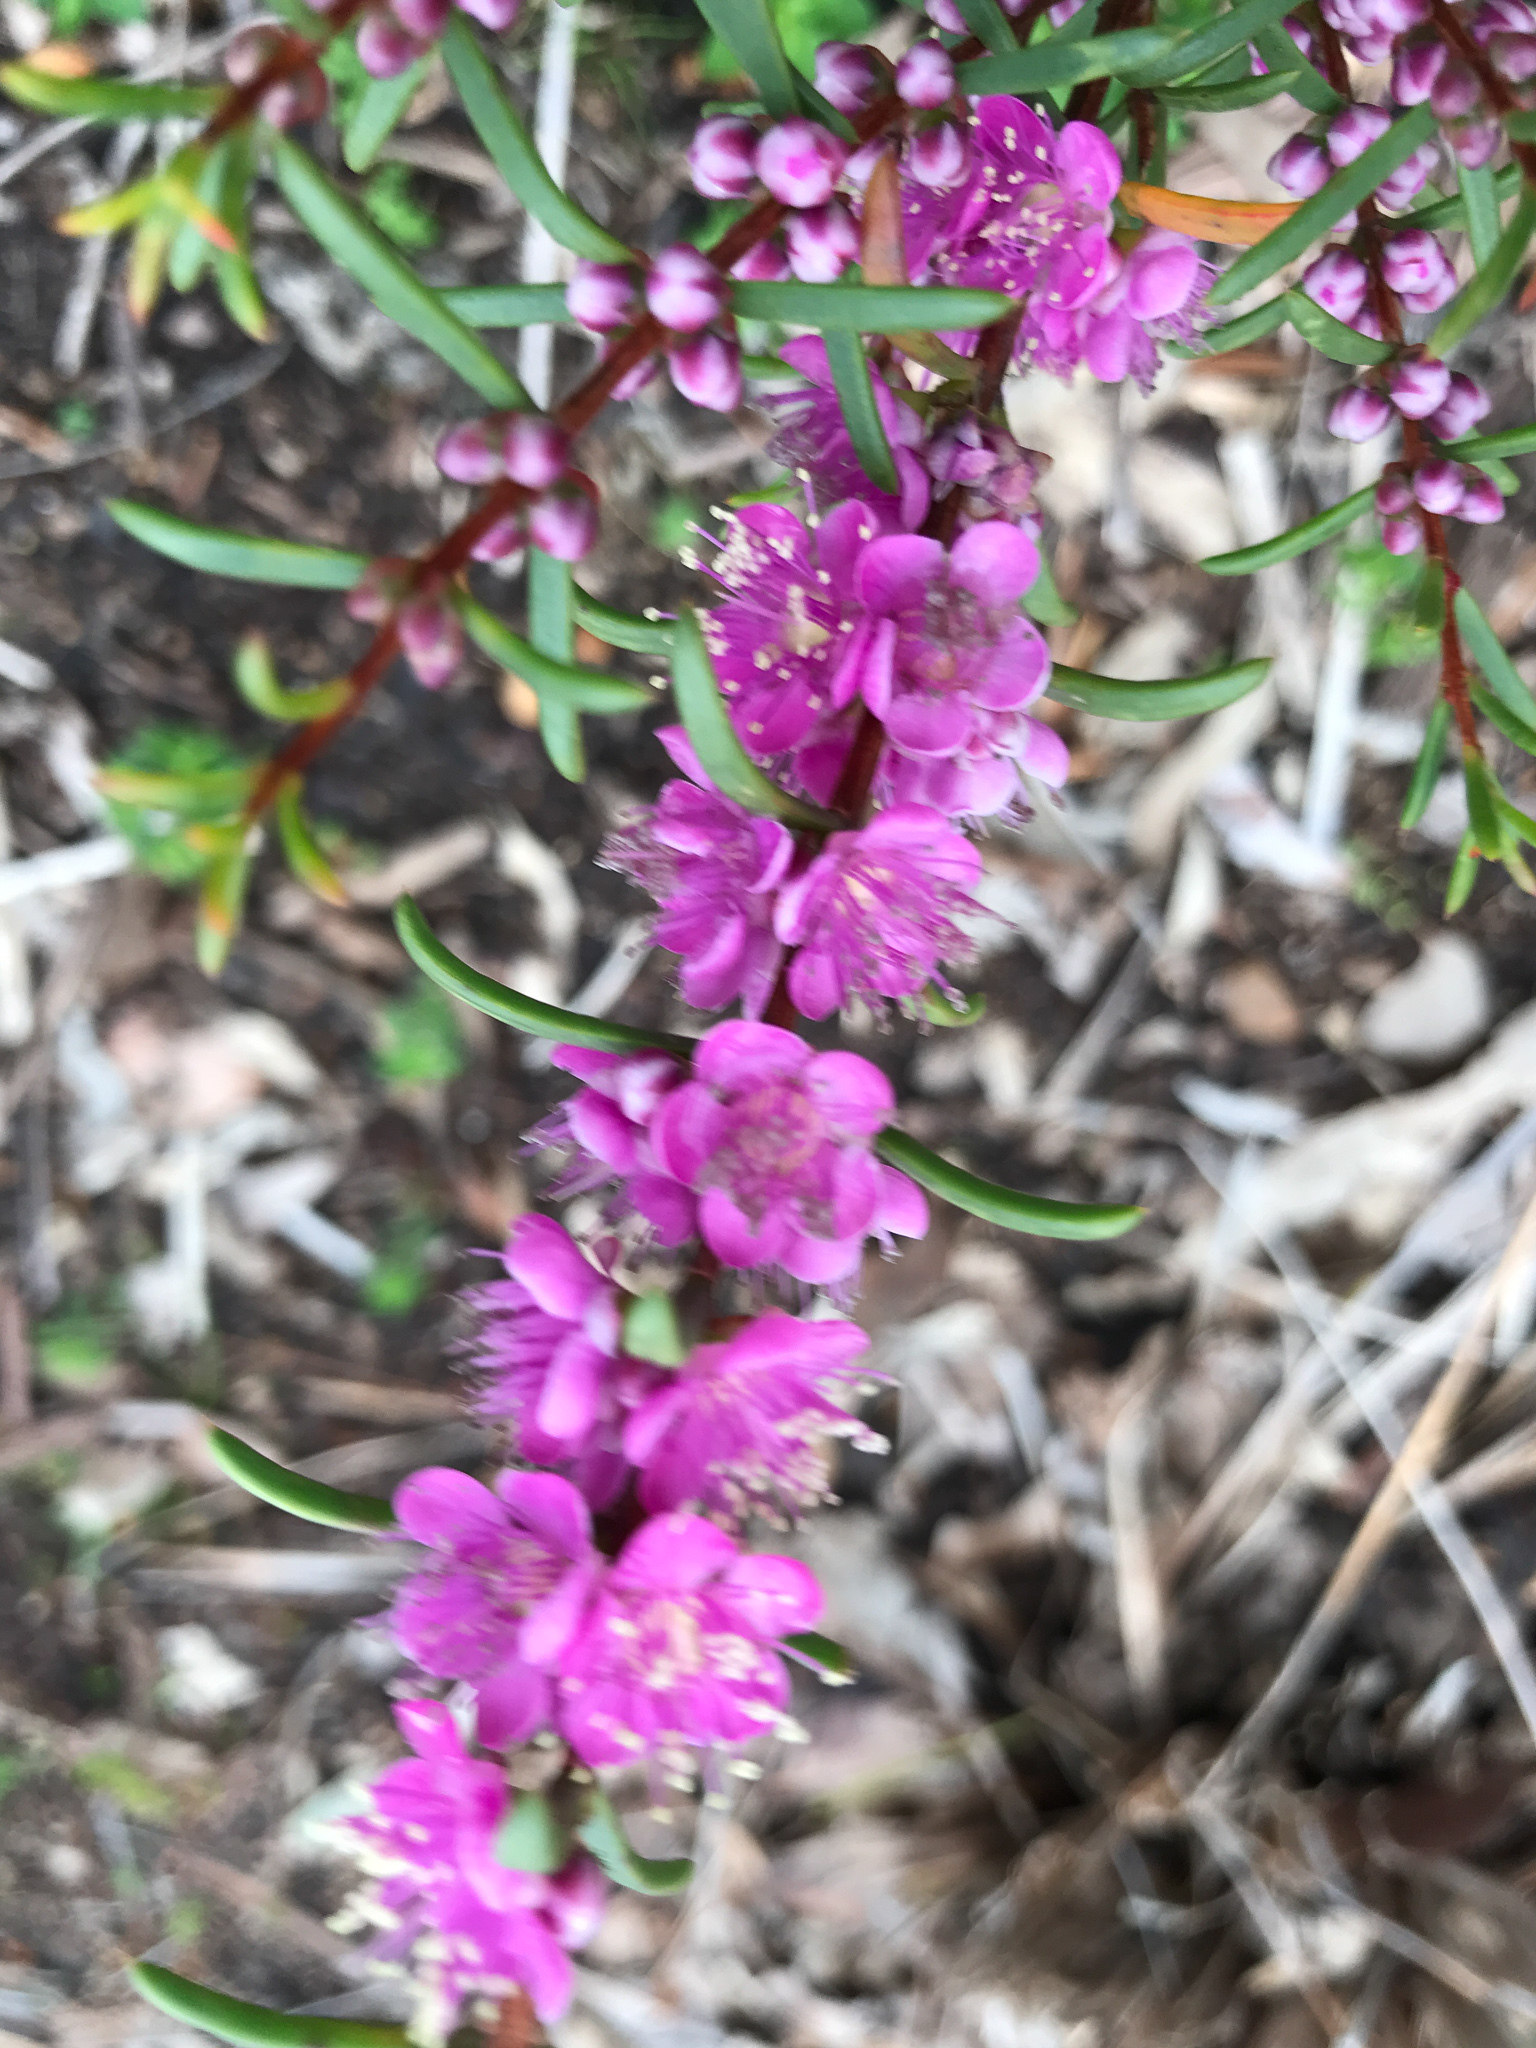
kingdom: Plantae
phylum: Tracheophyta
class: Magnoliopsida
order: Myrtales
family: Myrtaceae
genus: Hypocalymma
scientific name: Hypocalymma robustum
